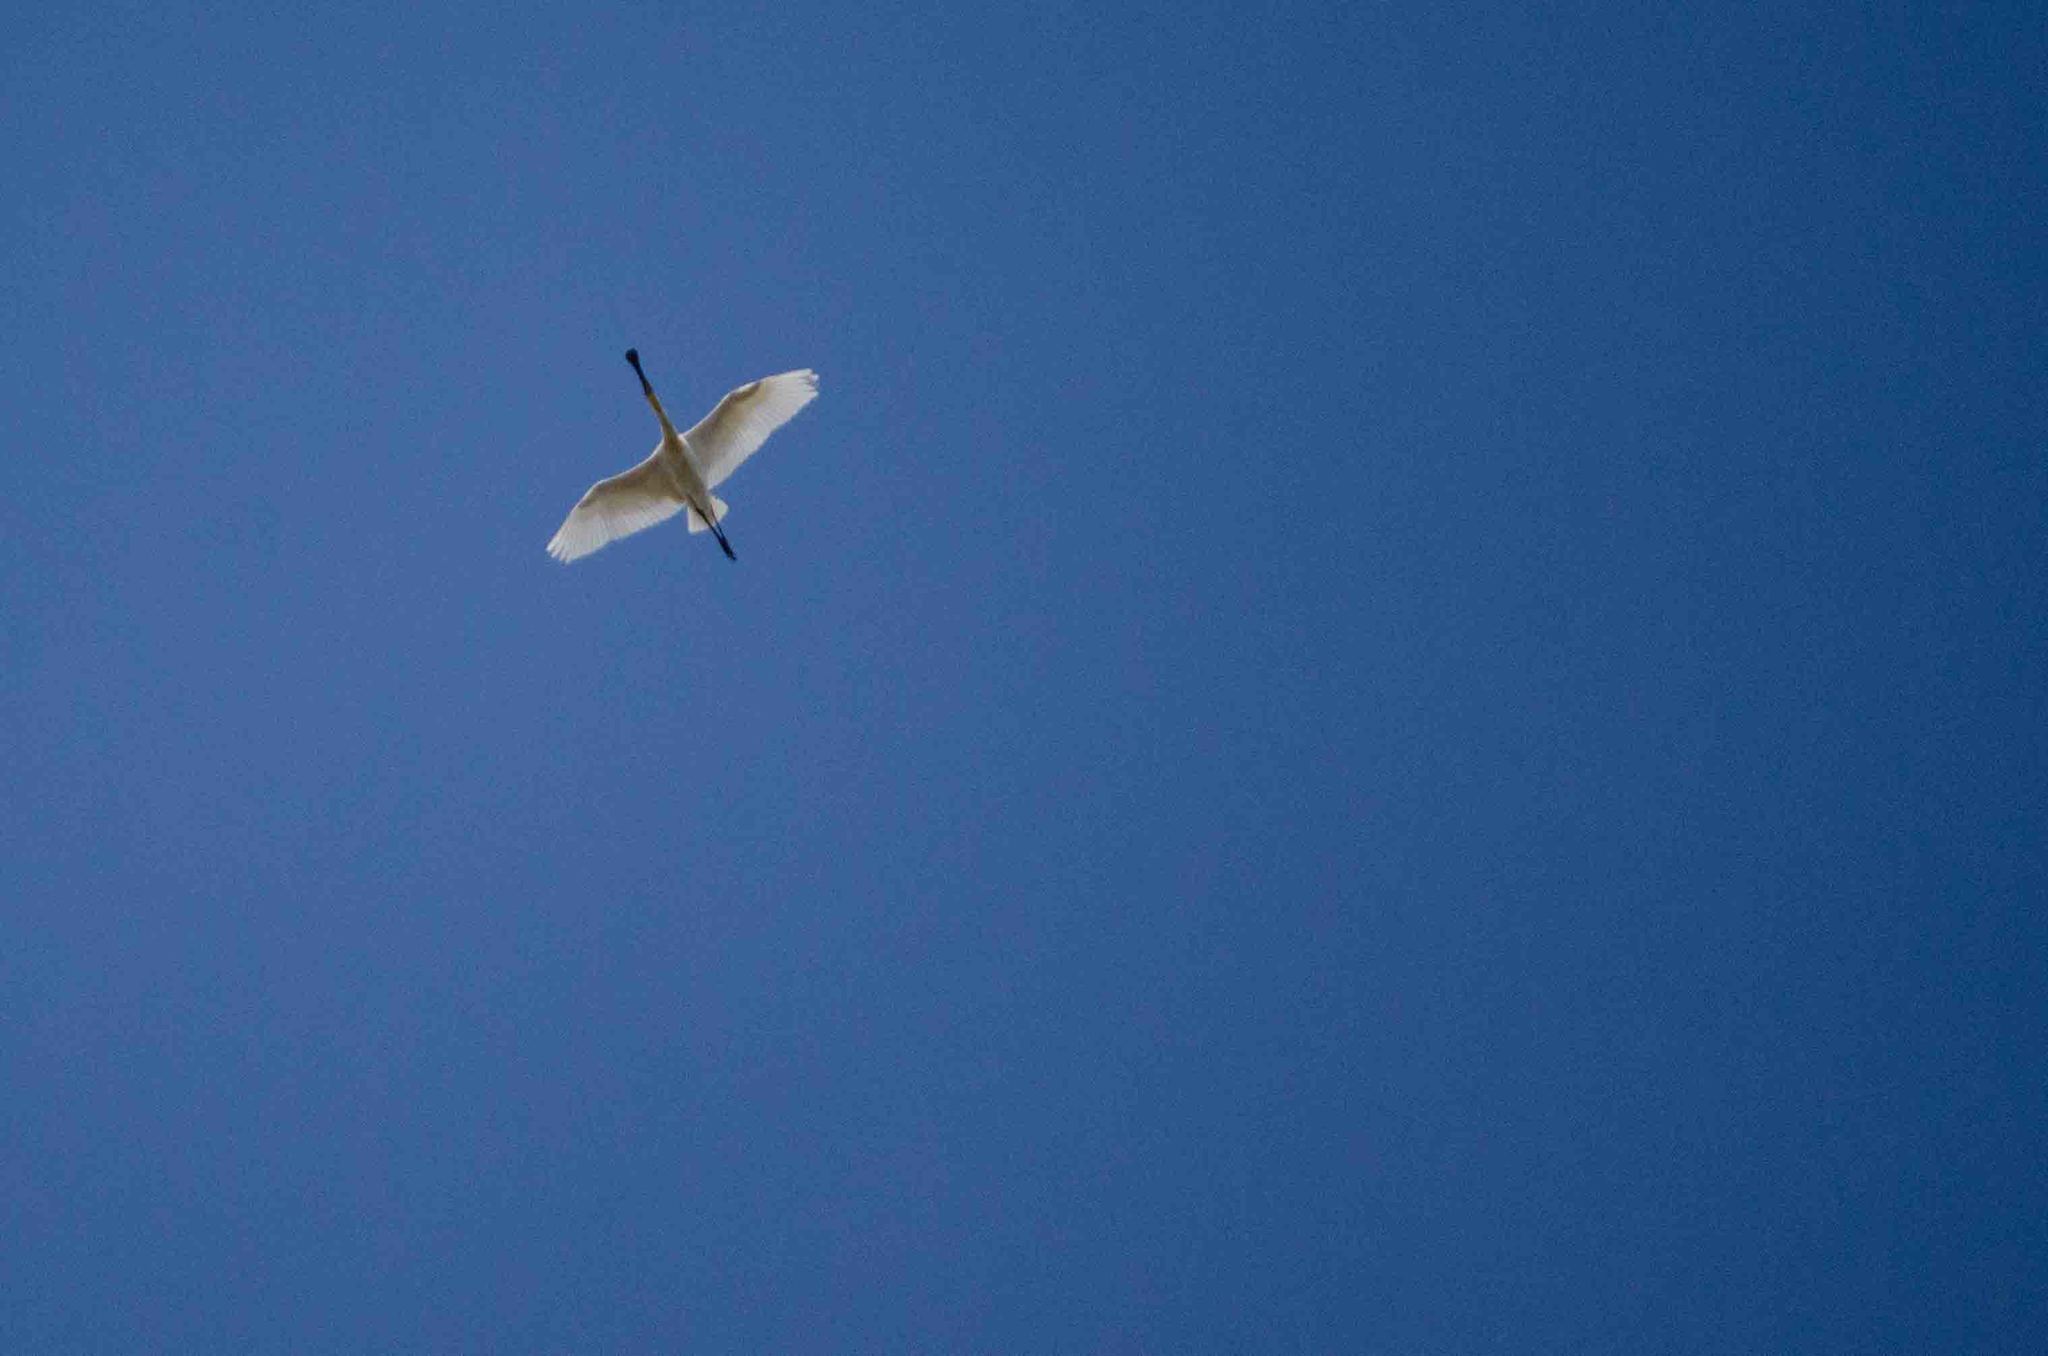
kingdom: Animalia
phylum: Chordata
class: Aves
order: Pelecaniformes
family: Threskiornithidae
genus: Platalea
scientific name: Platalea leucorodia
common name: Eurasian spoonbill
